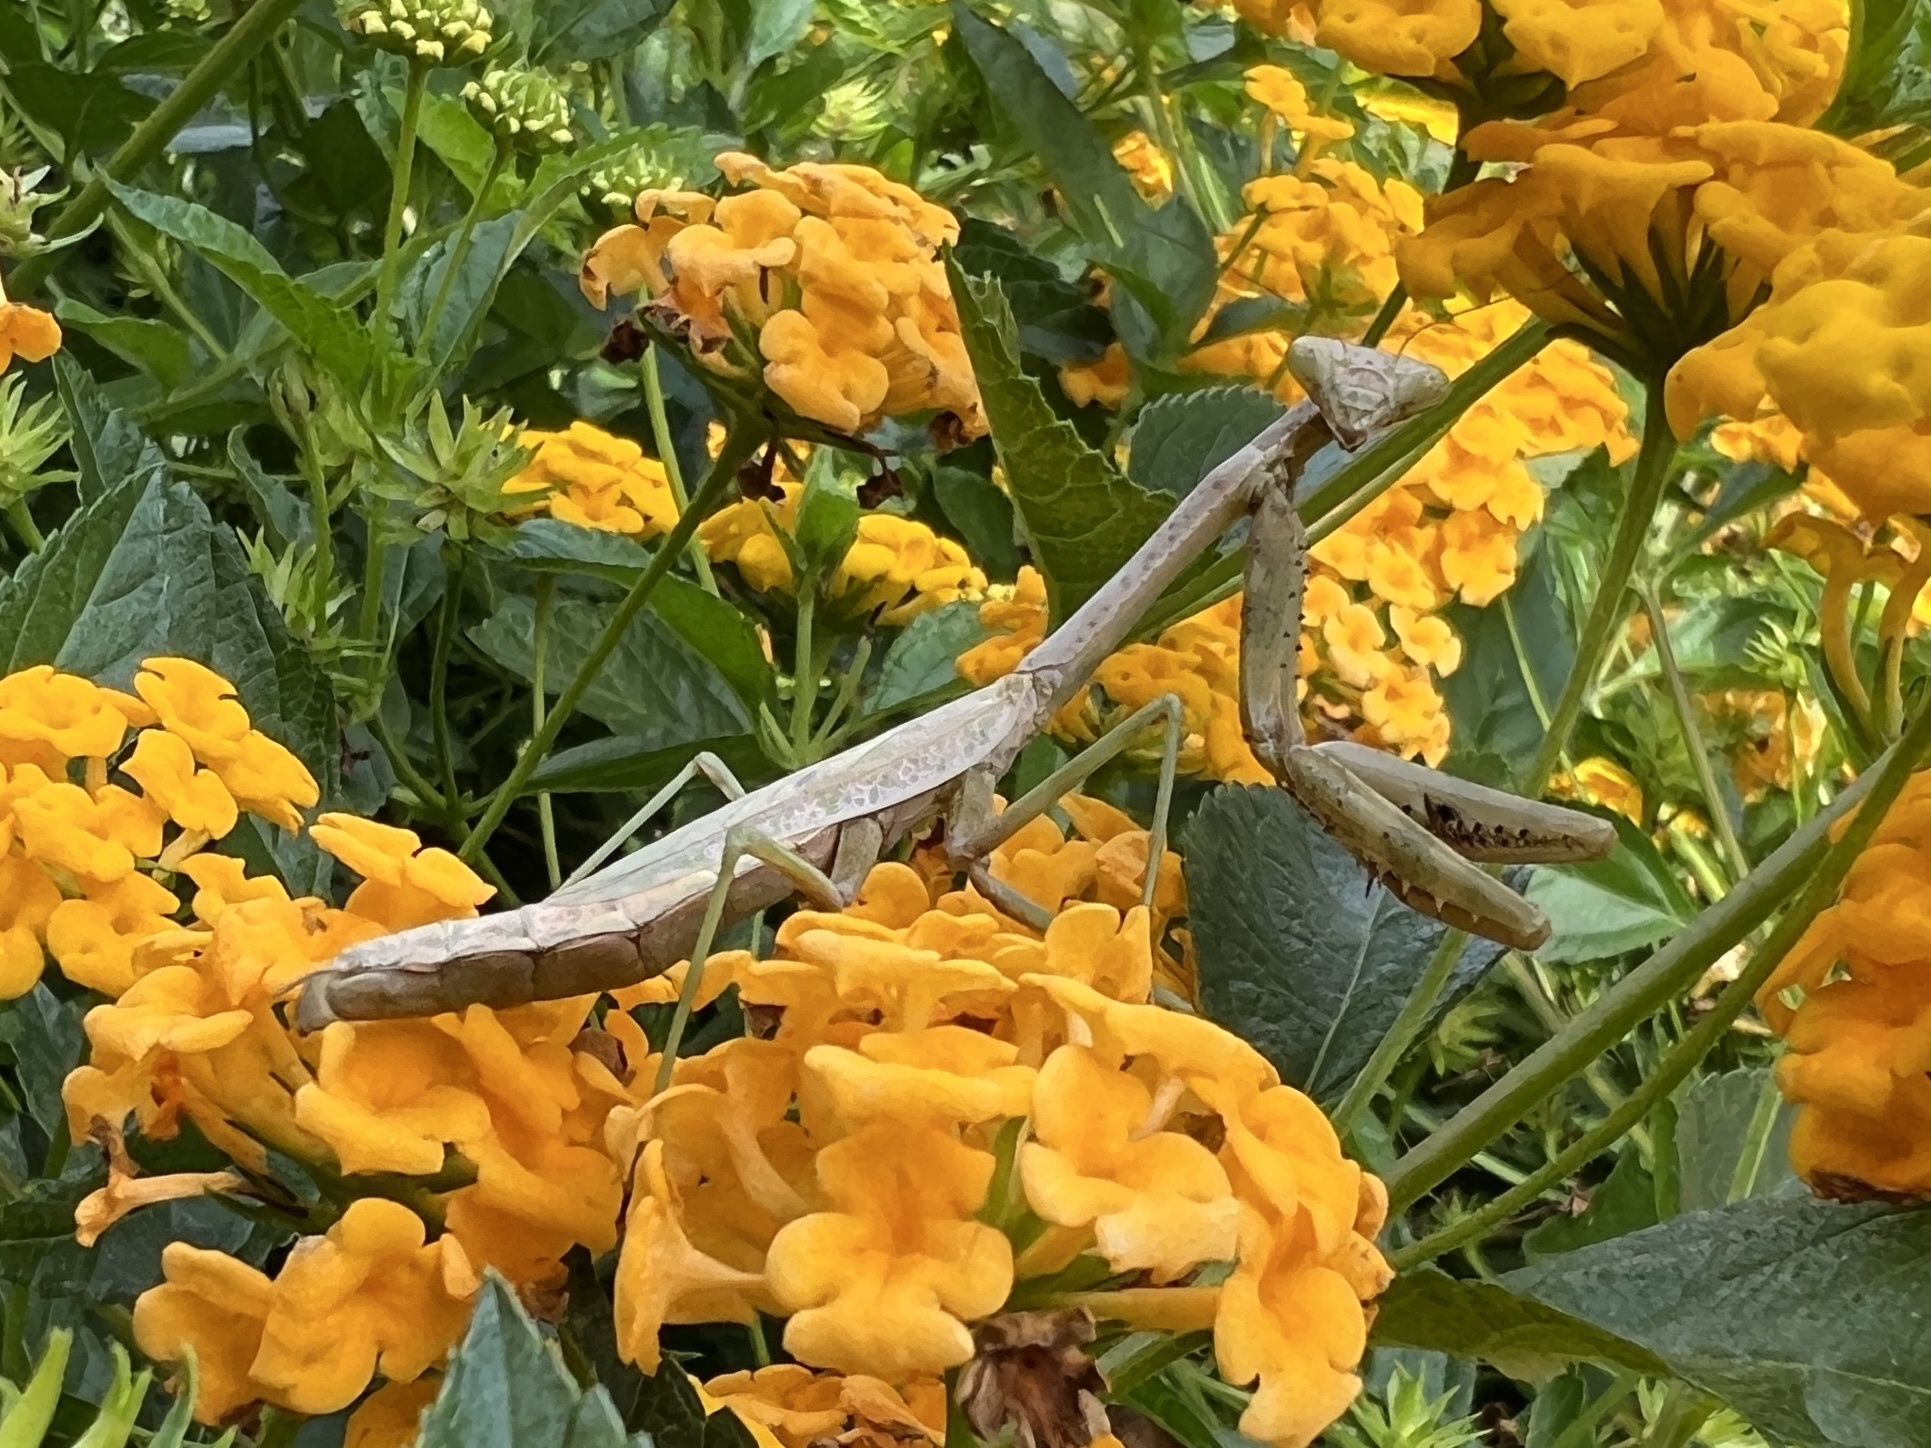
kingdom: Animalia
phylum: Arthropoda
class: Insecta
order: Mantodea
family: Mantidae
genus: Stagmomantis
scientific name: Stagmomantis carolina
